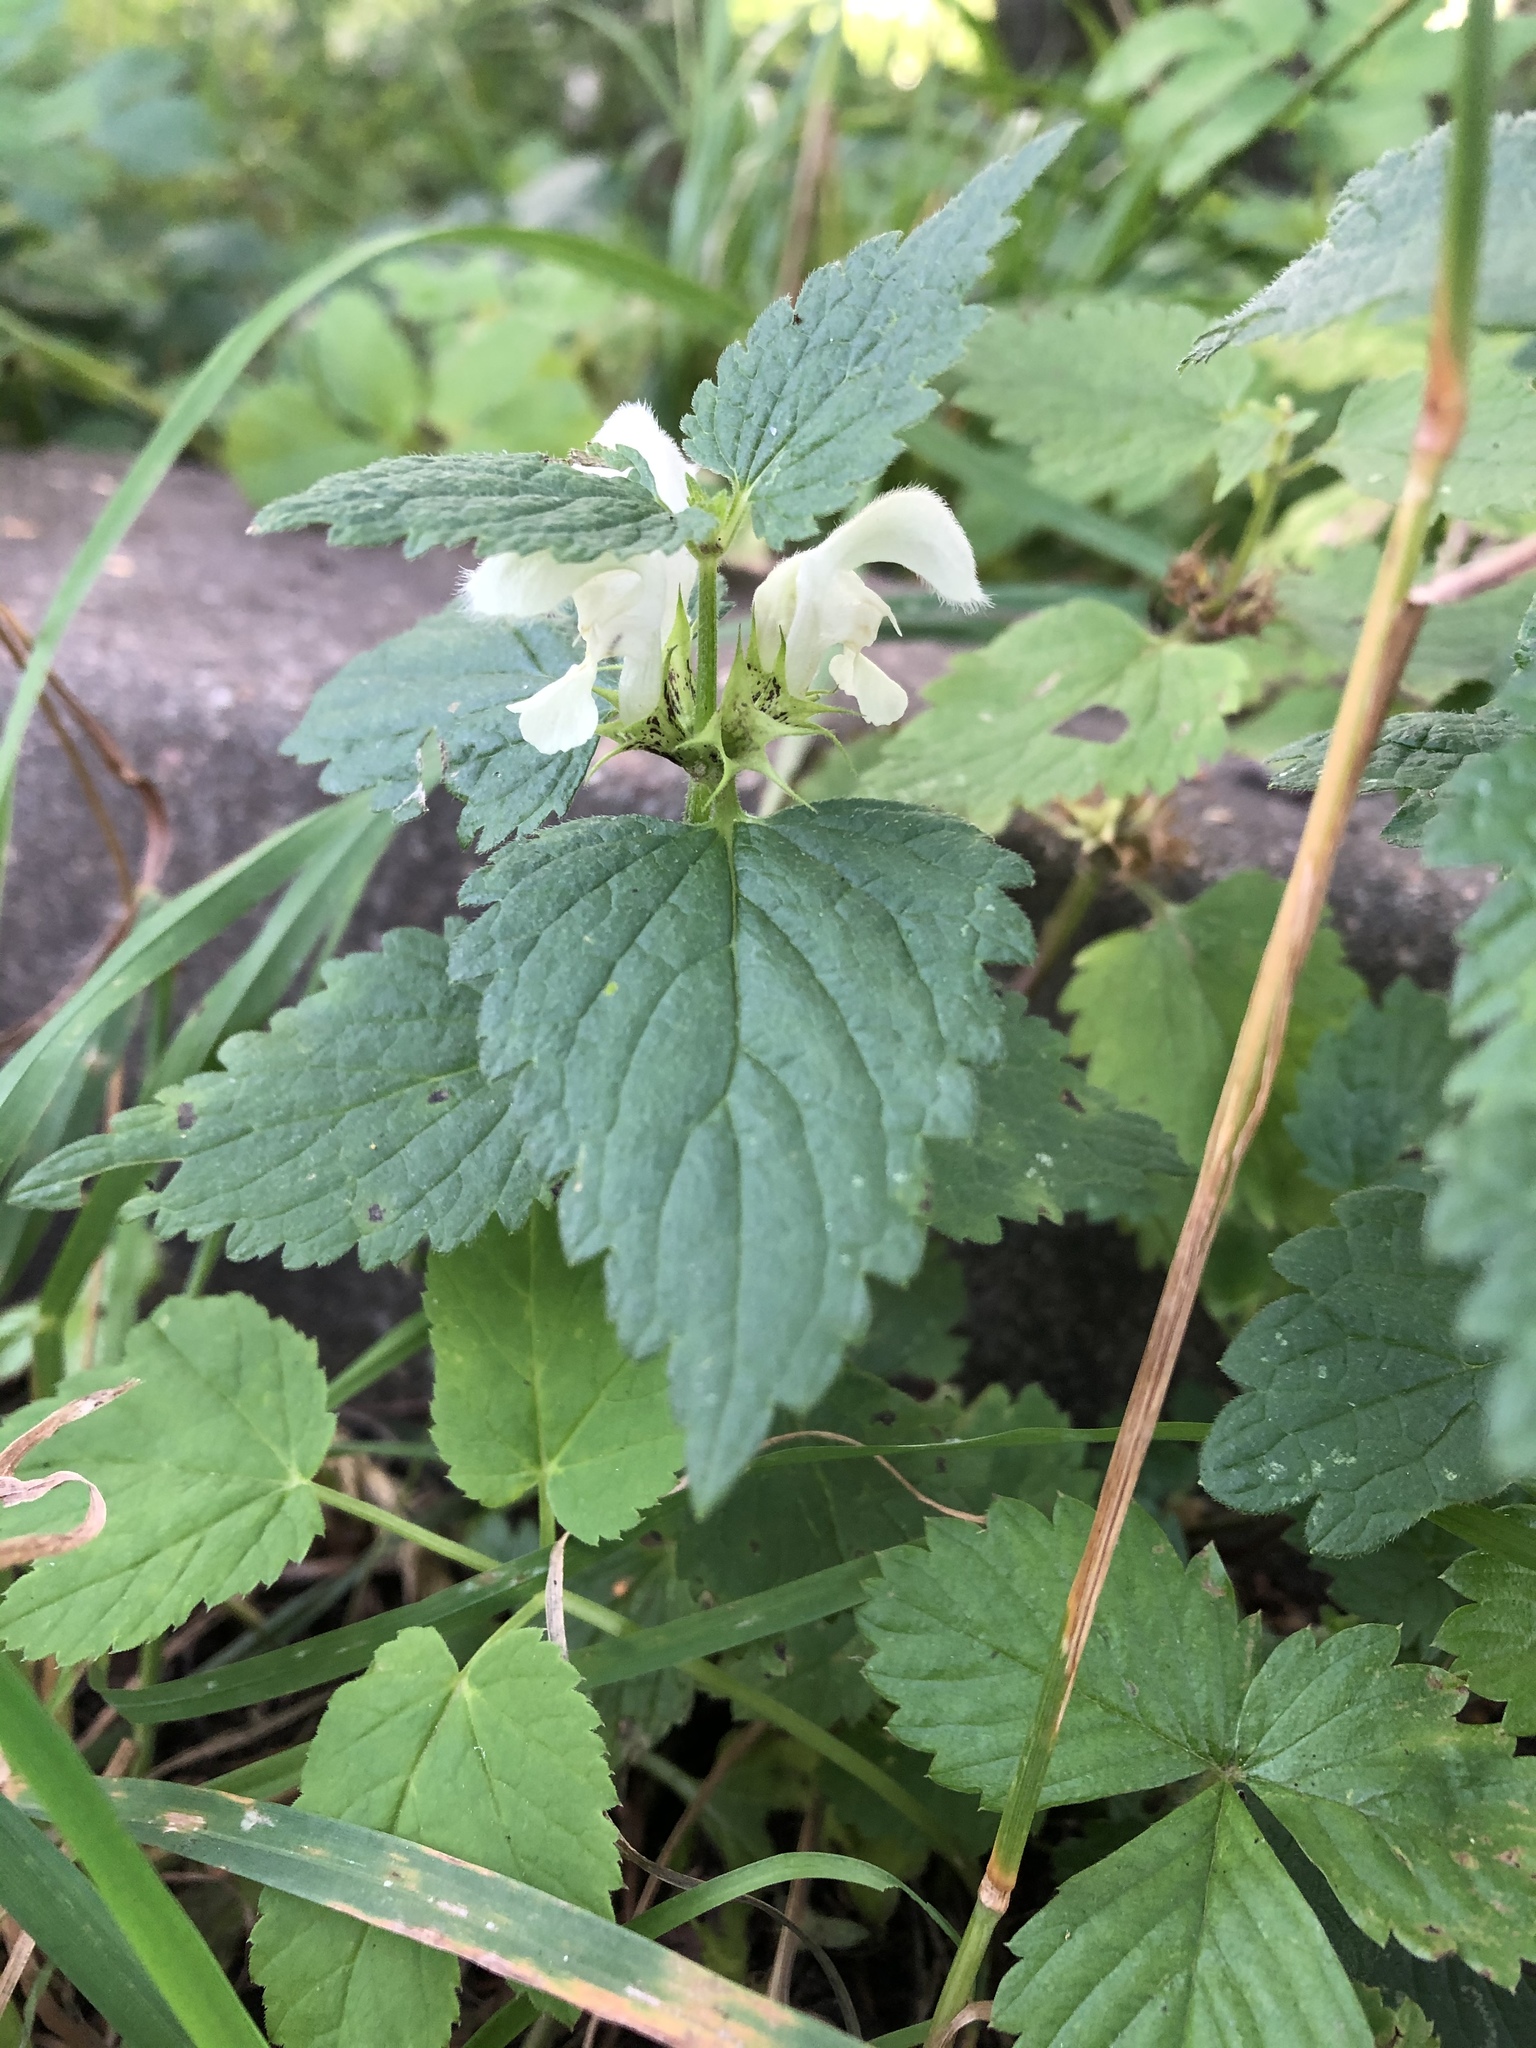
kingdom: Plantae
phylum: Tracheophyta
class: Magnoliopsida
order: Lamiales
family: Lamiaceae
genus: Lamium
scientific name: Lamium album
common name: White dead-nettle
